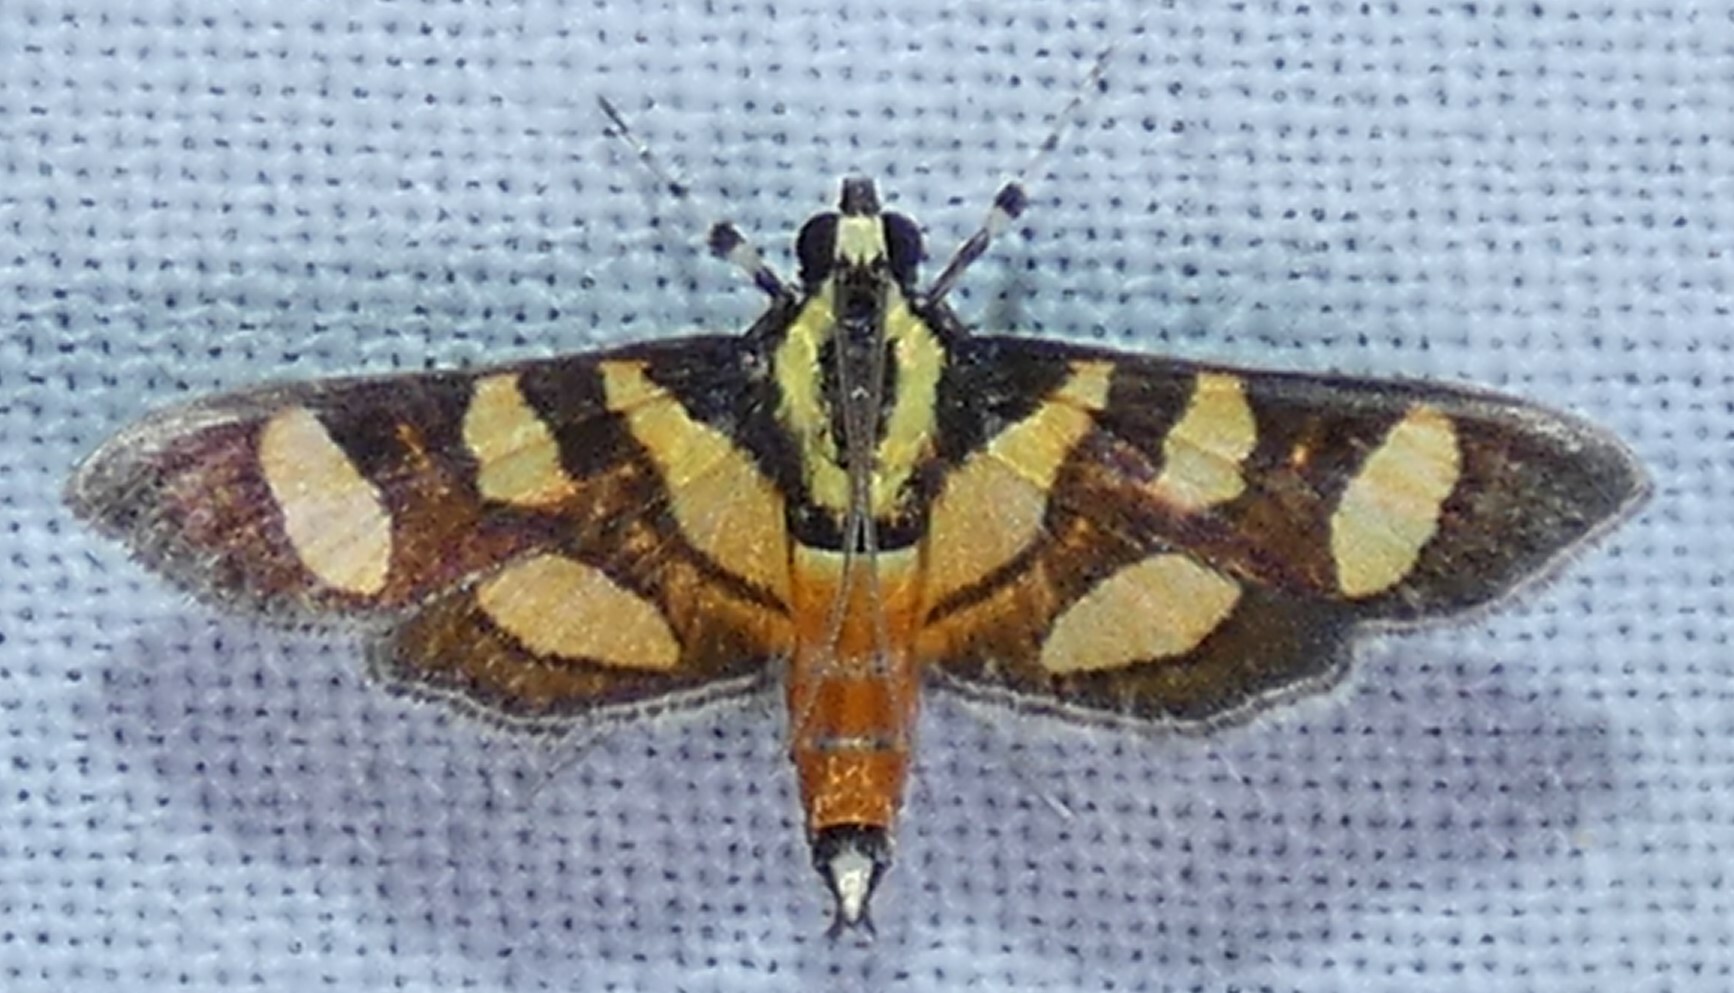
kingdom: Animalia
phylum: Arthropoda
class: Insecta
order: Lepidoptera
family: Crambidae
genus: Syngamia
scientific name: Syngamia florella
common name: Orange-spotted flower moth
